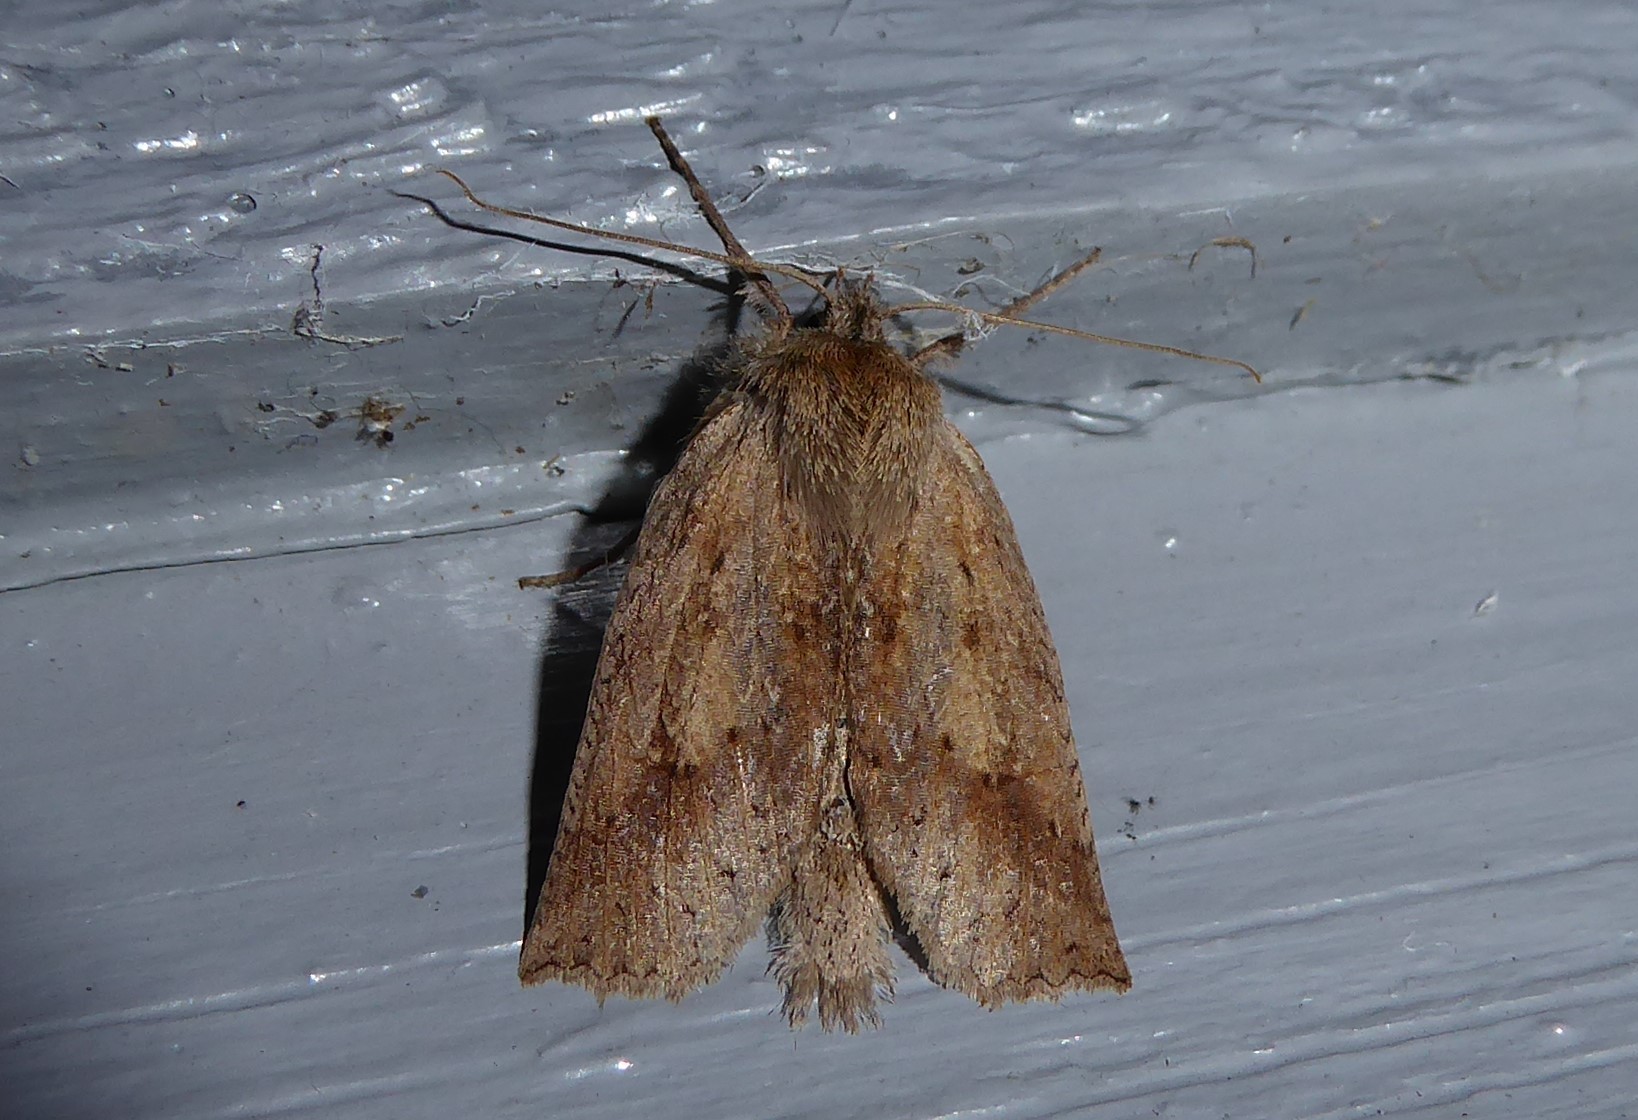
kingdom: Animalia
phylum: Arthropoda
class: Insecta
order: Lepidoptera
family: Geometridae
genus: Declana
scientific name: Declana leptomera
